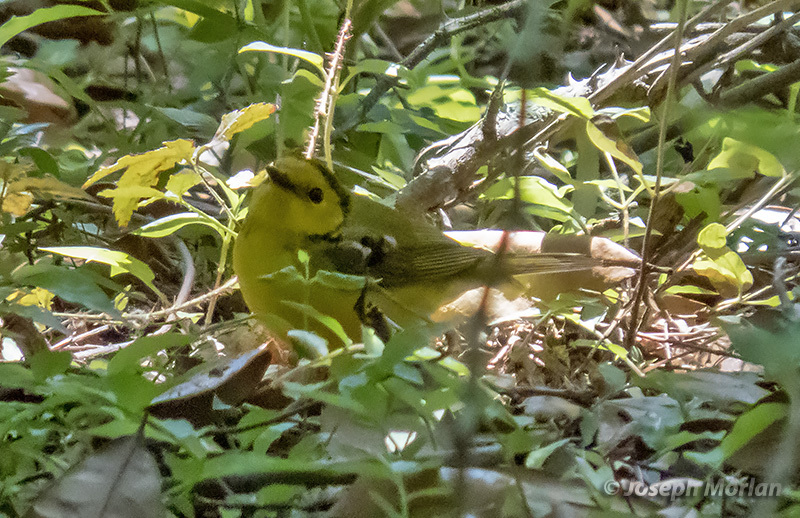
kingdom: Animalia
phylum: Chordata
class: Aves
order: Passeriformes
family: Parulidae
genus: Setophaga
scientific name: Setophaga citrina
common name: Hooded warbler
